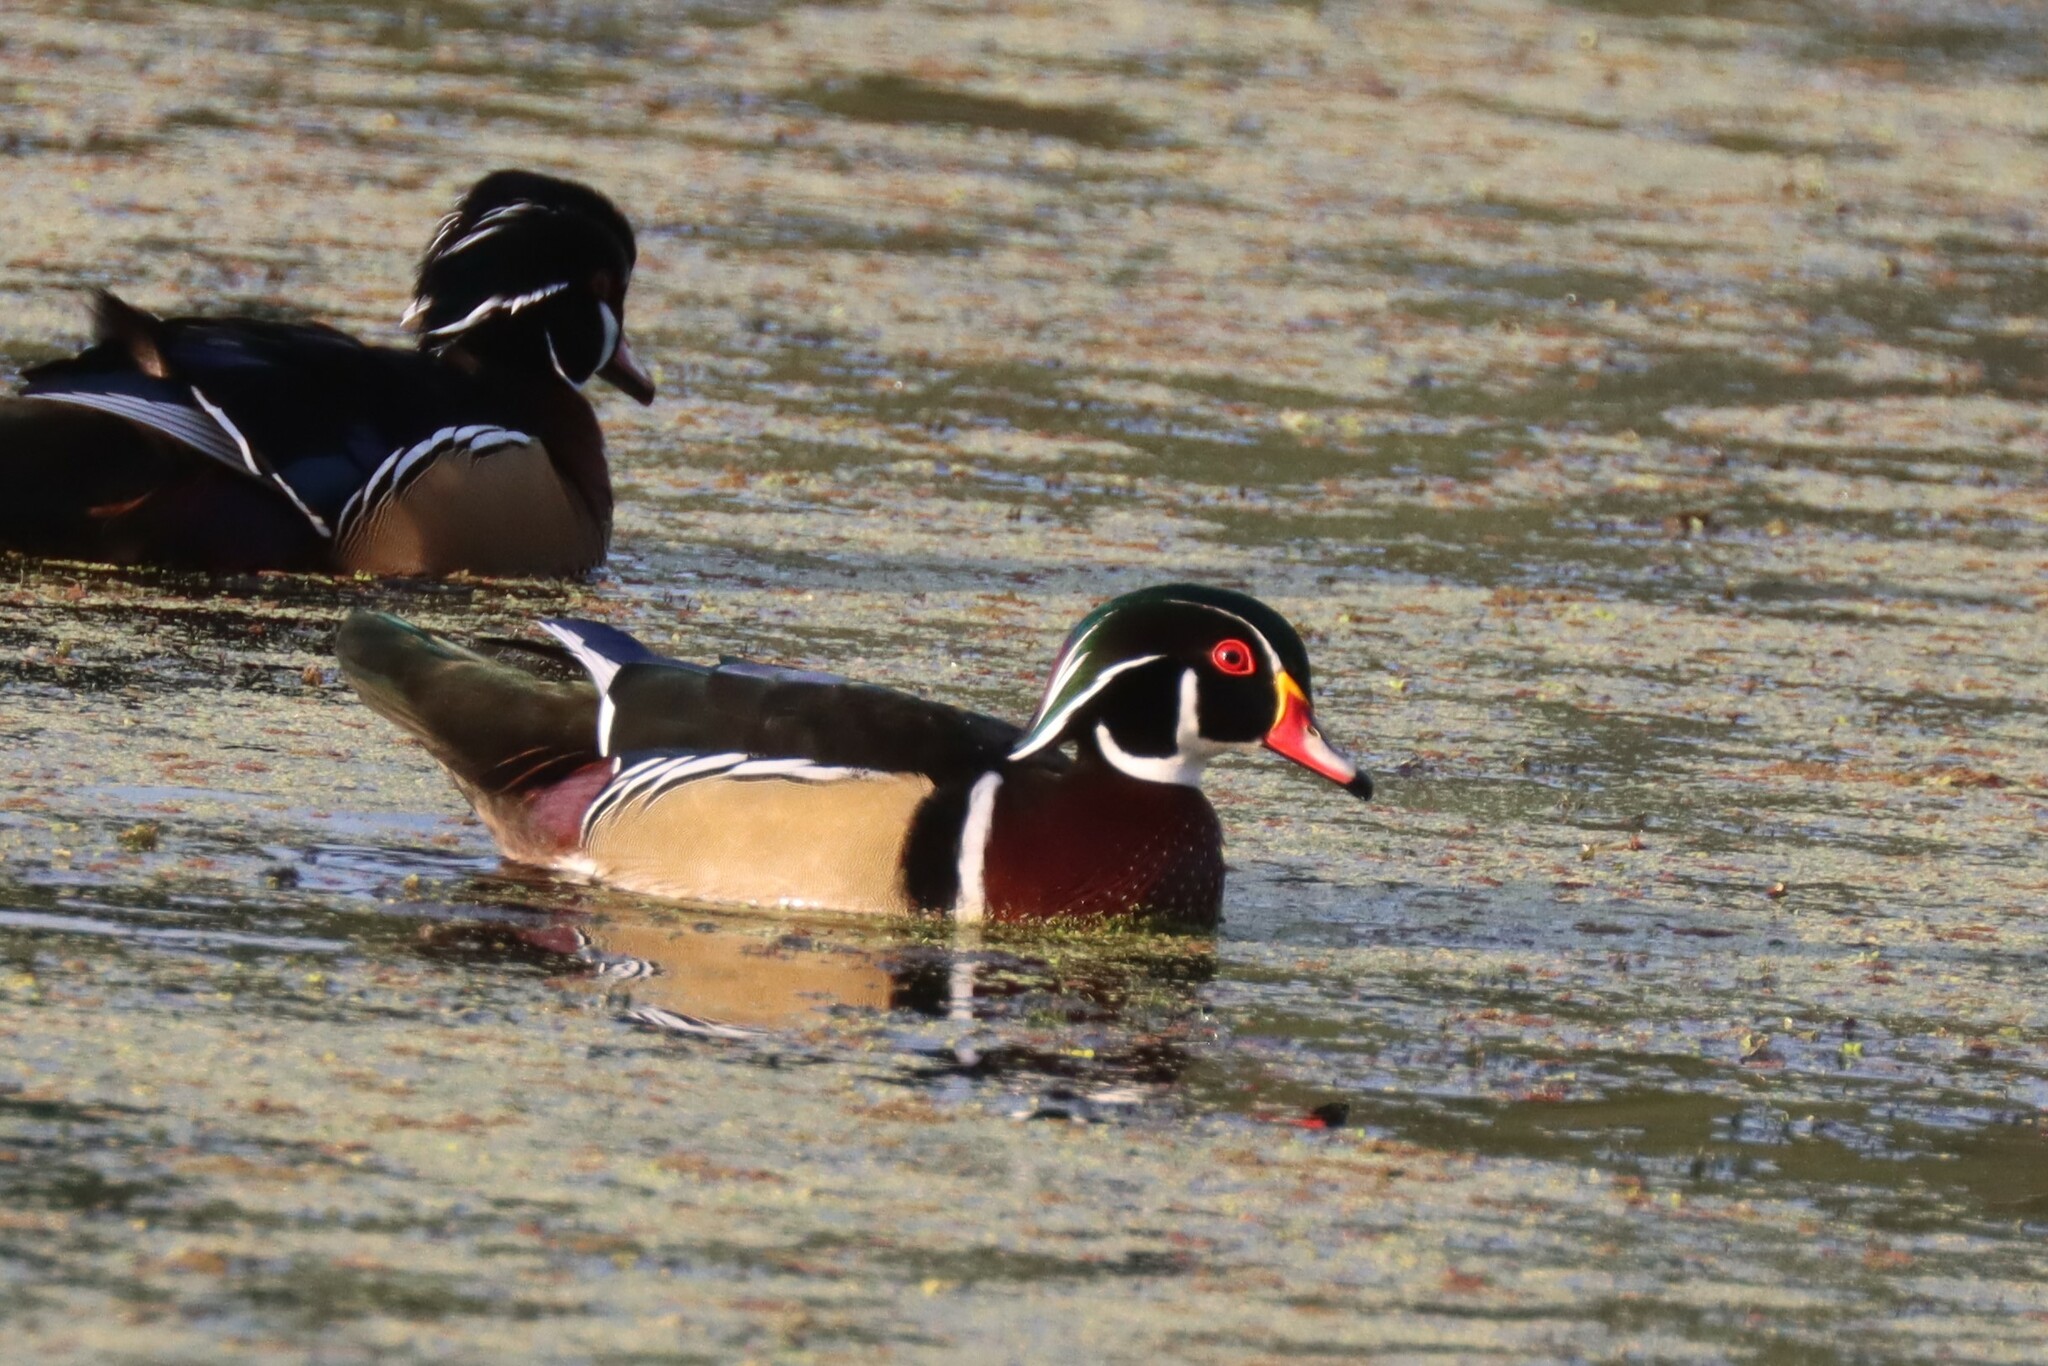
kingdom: Animalia
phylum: Chordata
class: Aves
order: Anseriformes
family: Anatidae
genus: Aix
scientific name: Aix sponsa
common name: Wood duck
